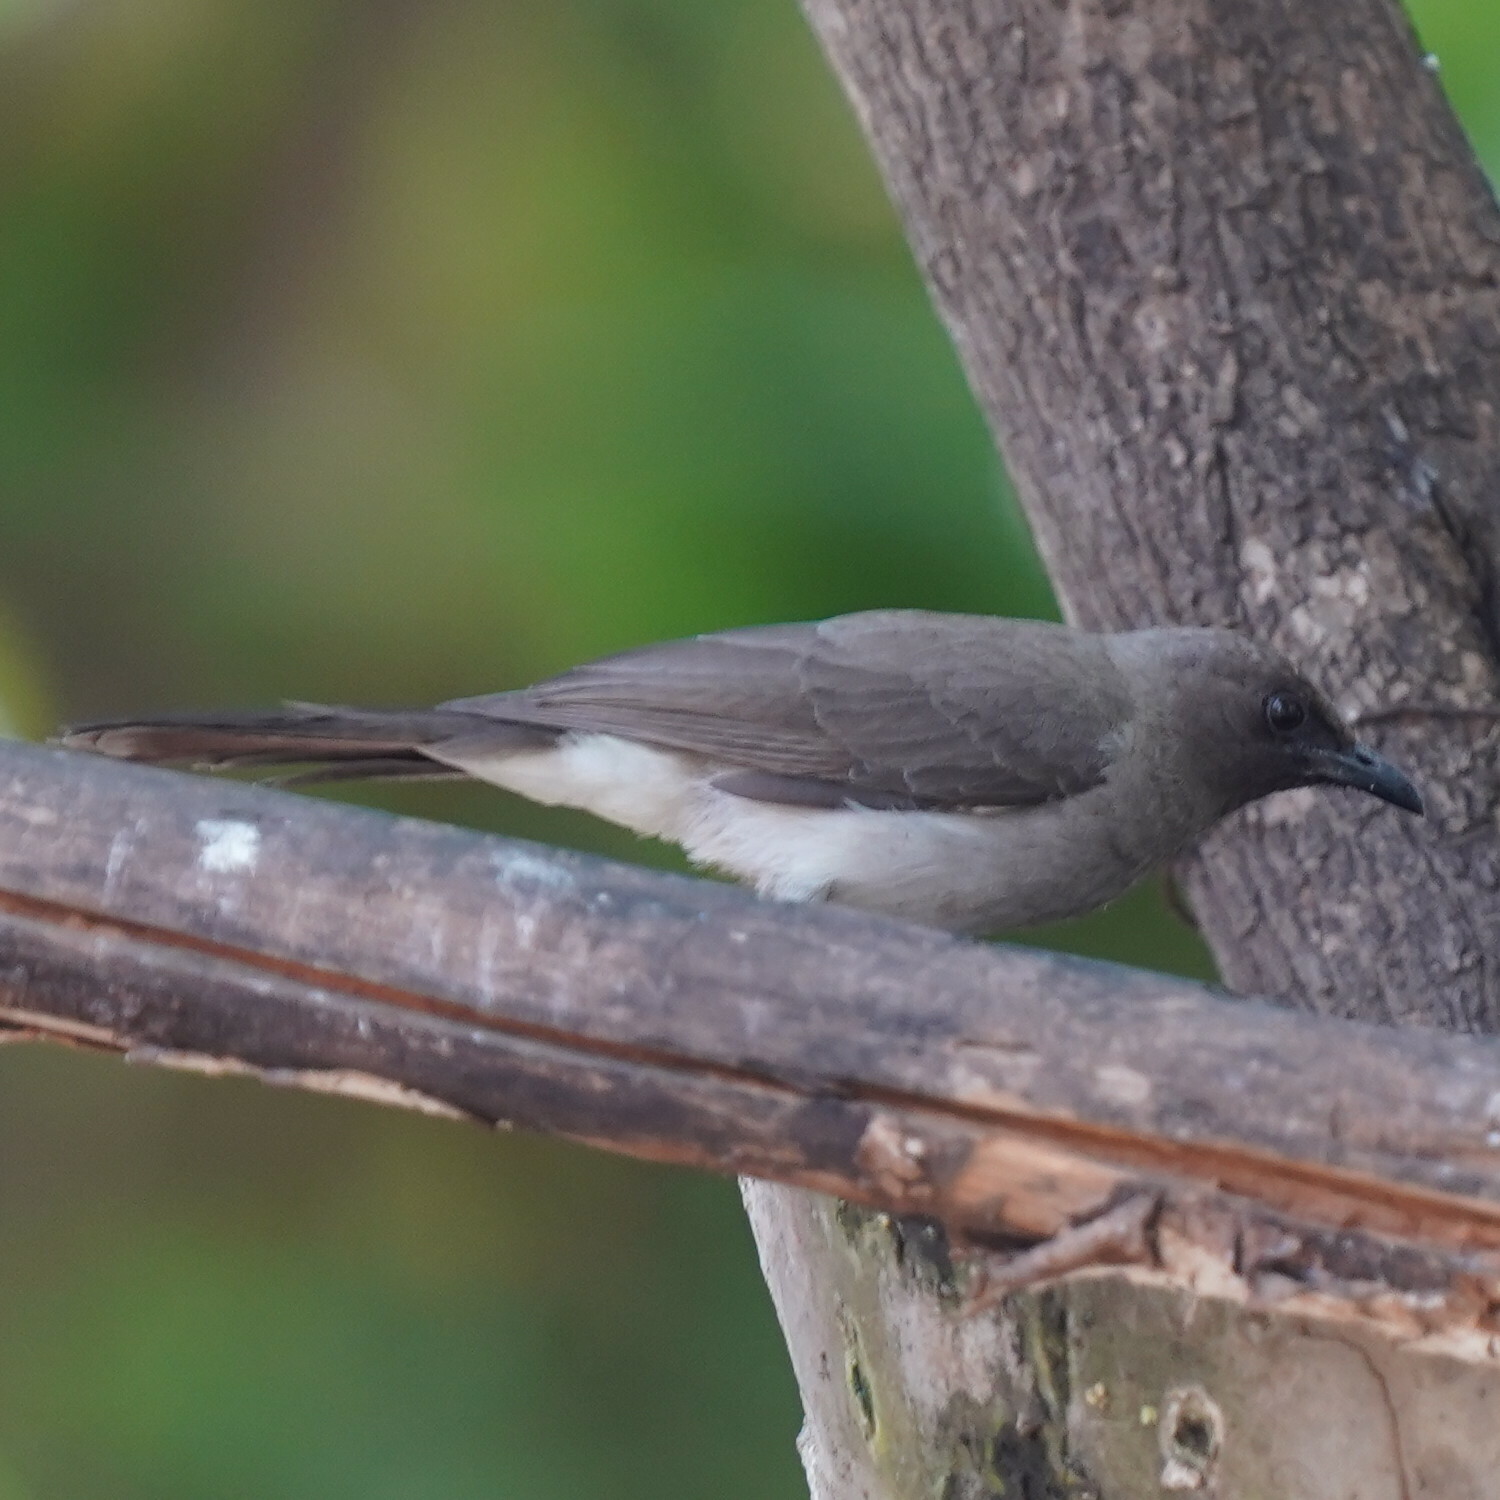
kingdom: Animalia
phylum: Chordata
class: Aves
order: Passeriformes
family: Pycnonotidae
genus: Pycnonotus
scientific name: Pycnonotus barbatus
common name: Common bulbul
